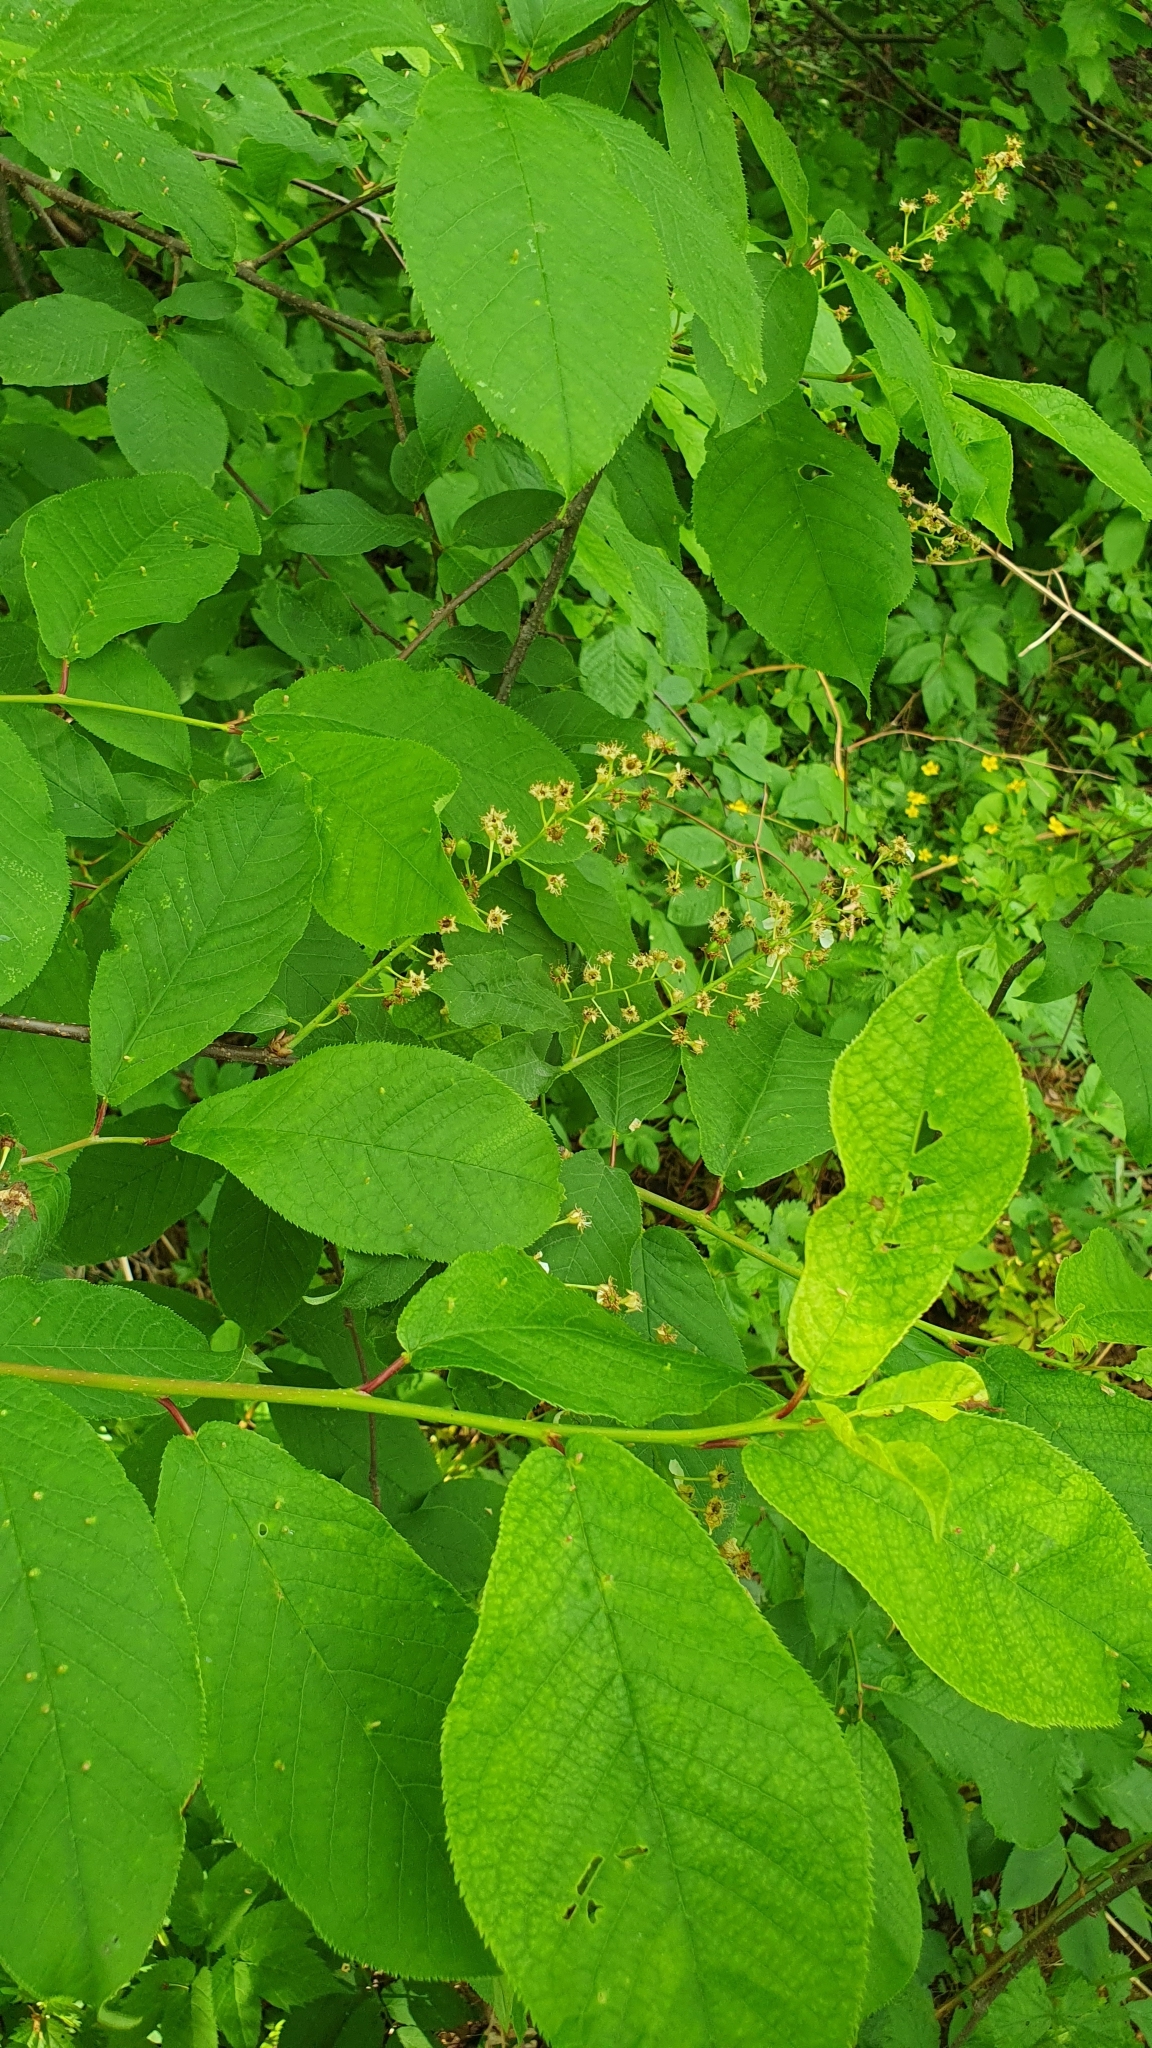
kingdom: Plantae
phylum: Tracheophyta
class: Magnoliopsida
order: Rosales
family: Rosaceae
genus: Prunus
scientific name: Prunus padus
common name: Bird cherry
